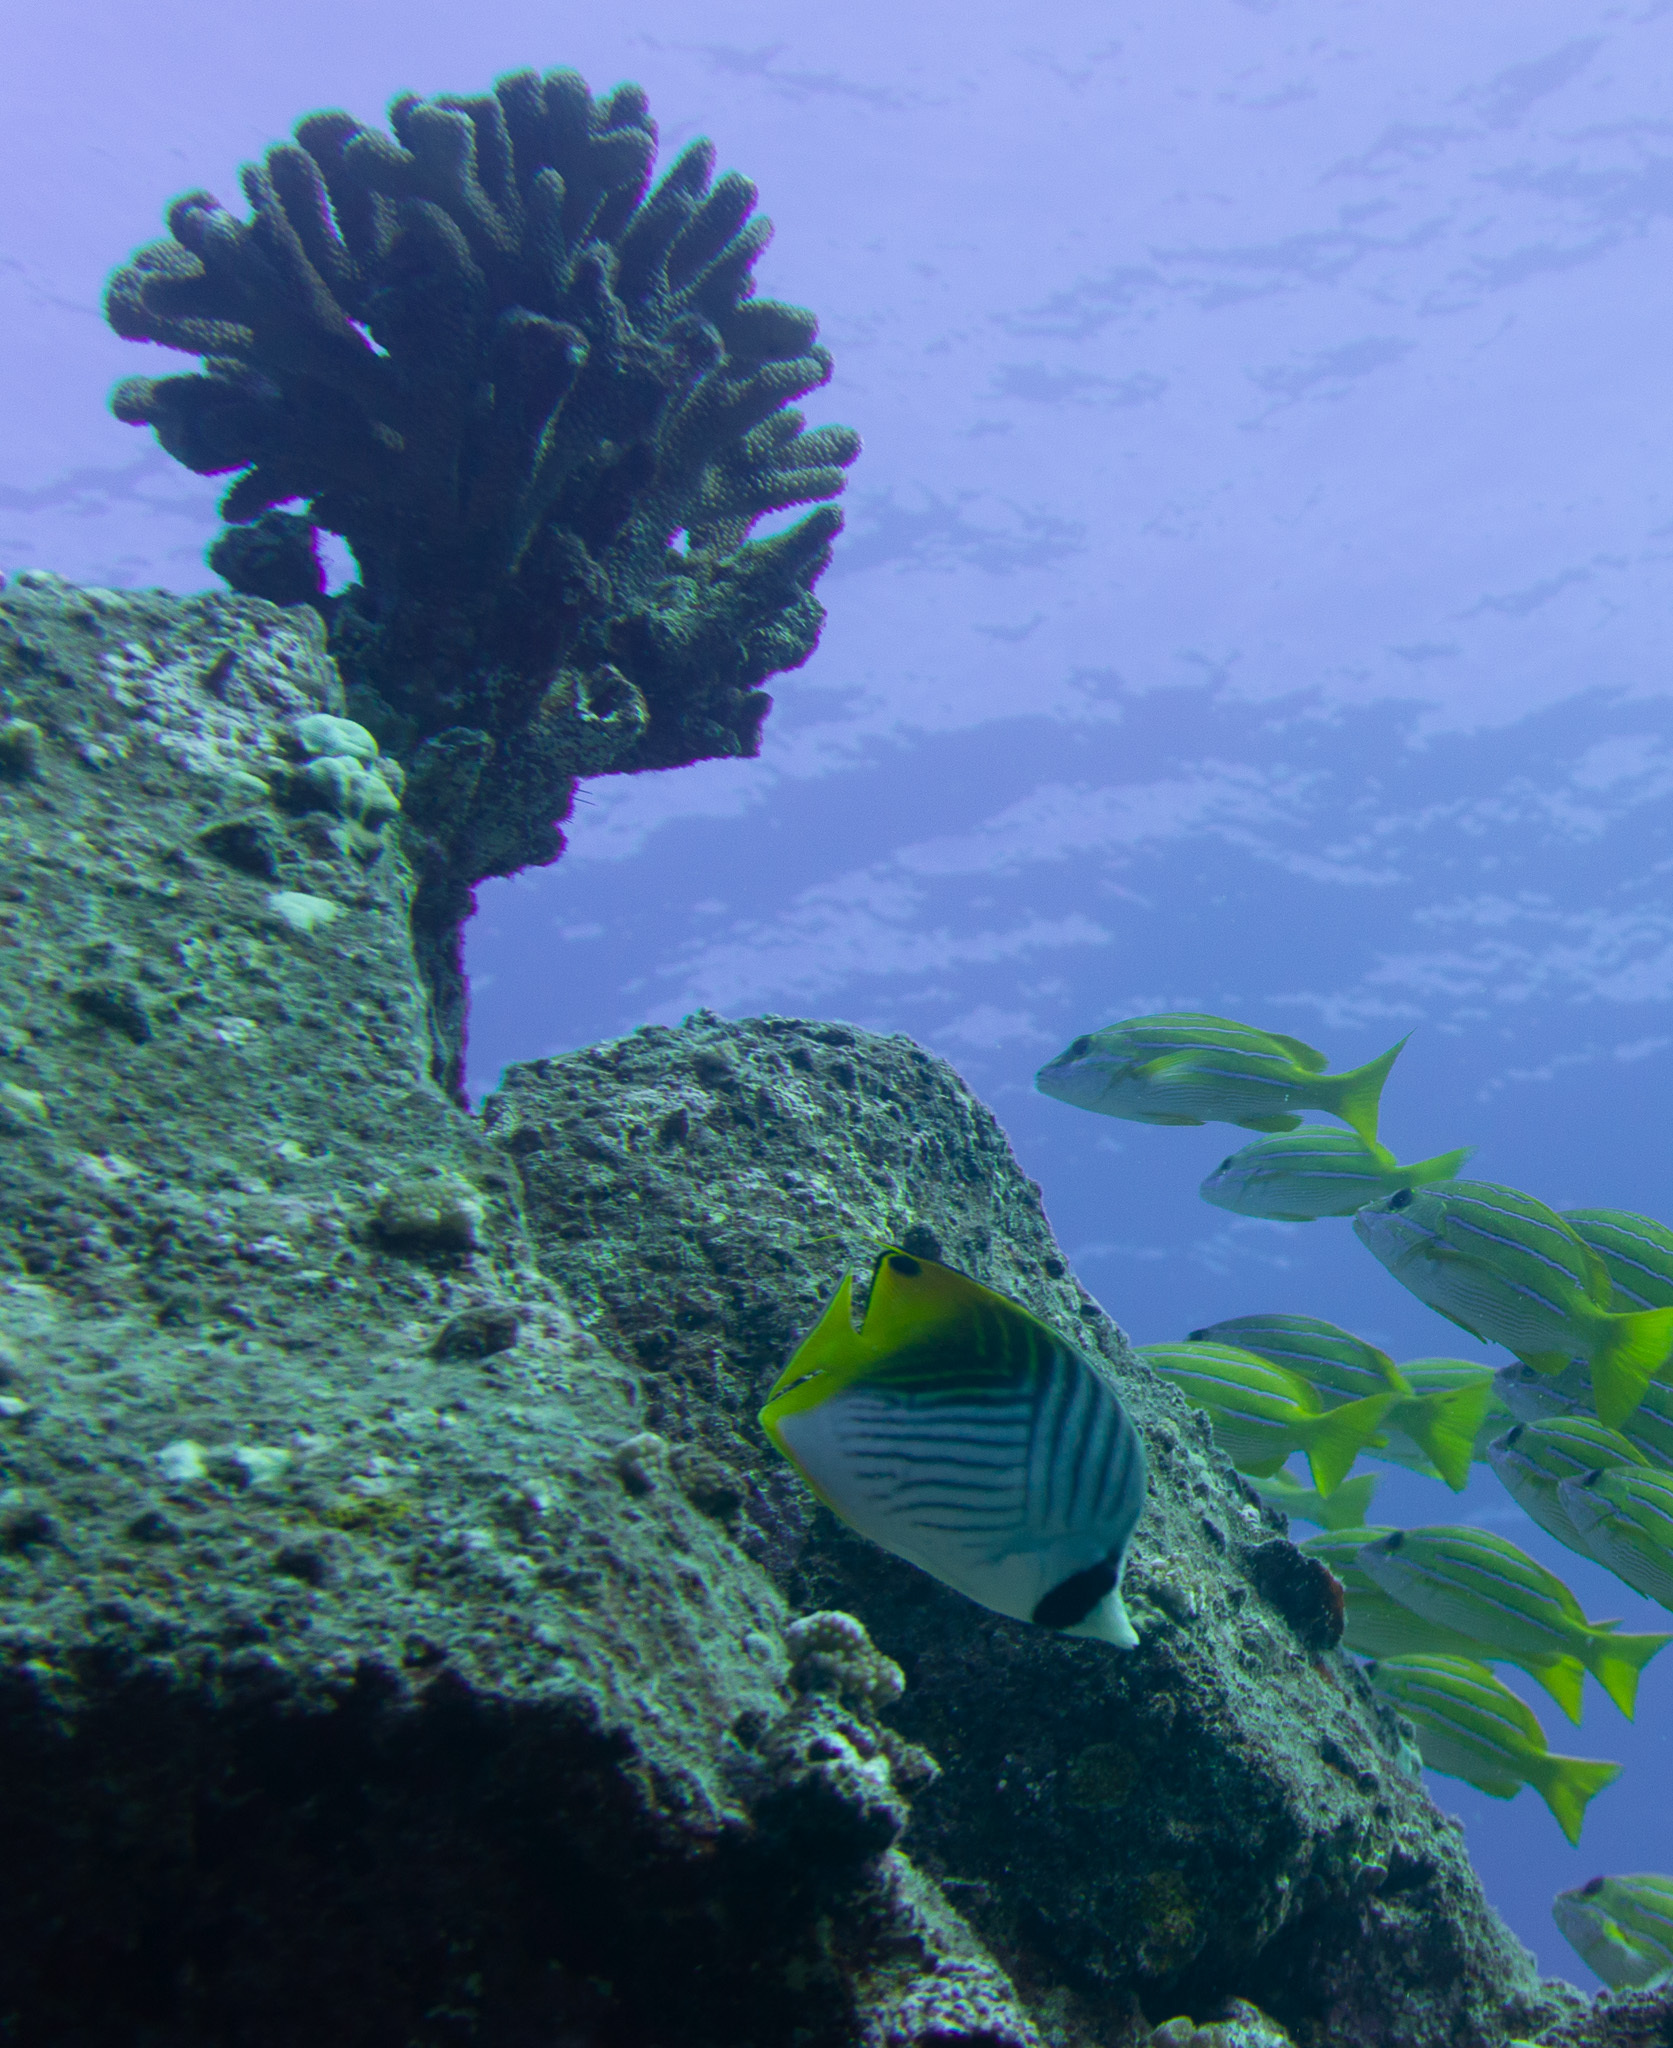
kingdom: Animalia
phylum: Chordata
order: Perciformes
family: Chaetodontidae
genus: Chaetodon
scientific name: Chaetodon auriga
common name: Threadfin butterflyfish
